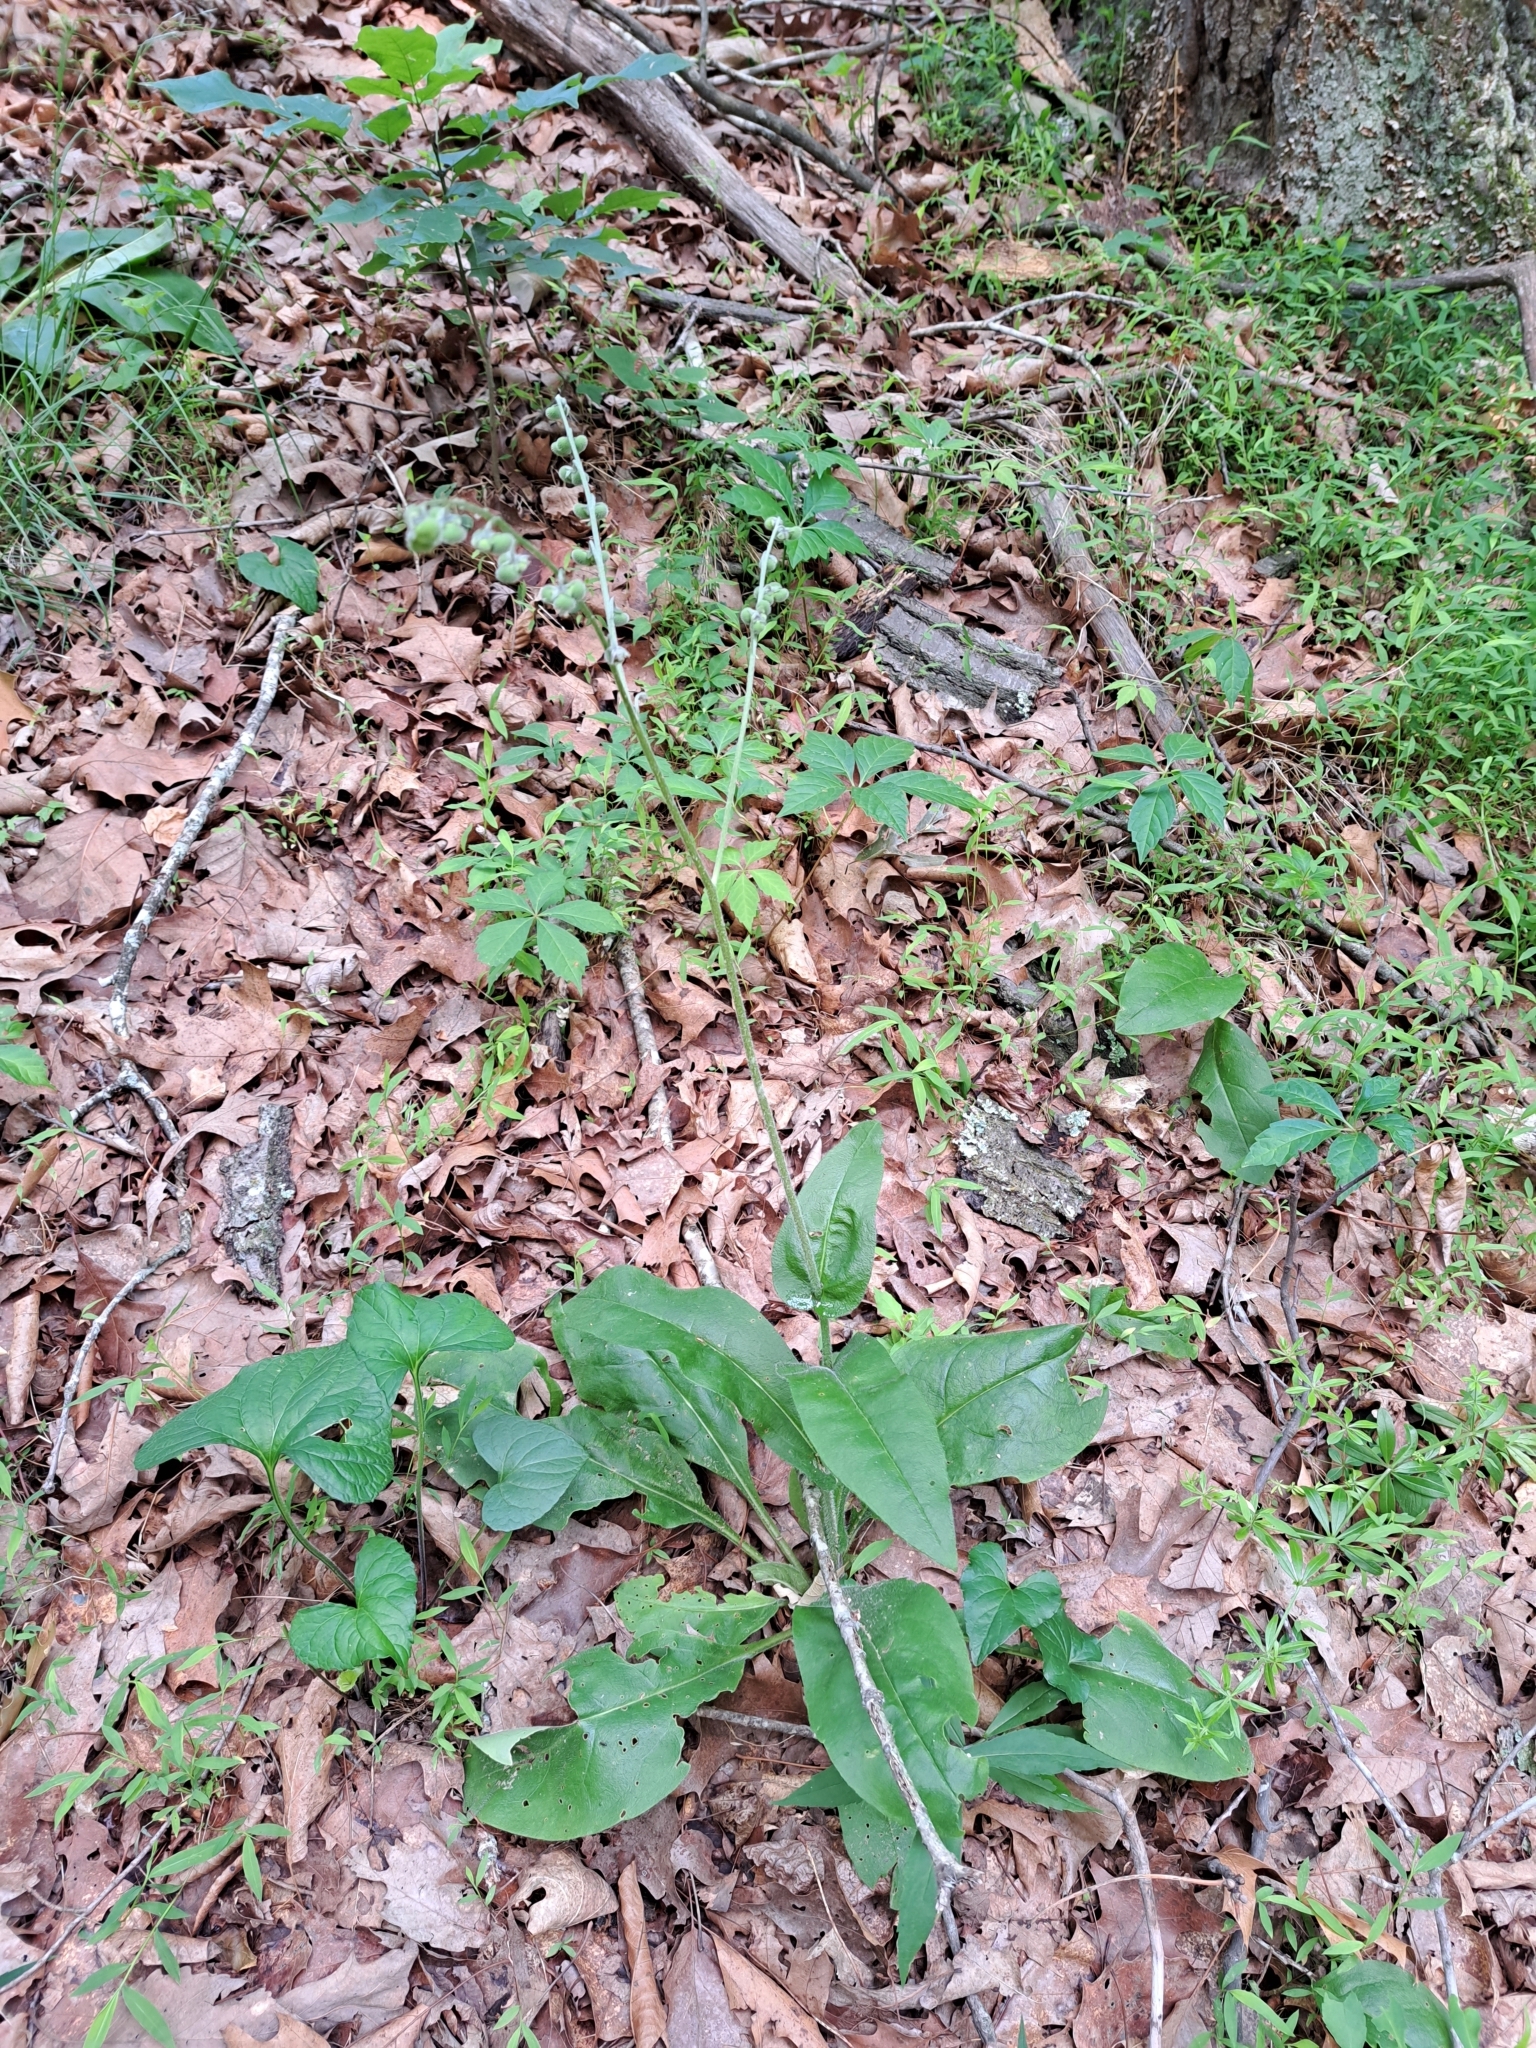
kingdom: Plantae
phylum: Tracheophyta
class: Magnoliopsida
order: Boraginales
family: Boraginaceae
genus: Andersonglossum
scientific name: Andersonglossum virginianum
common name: Wild comfrey
